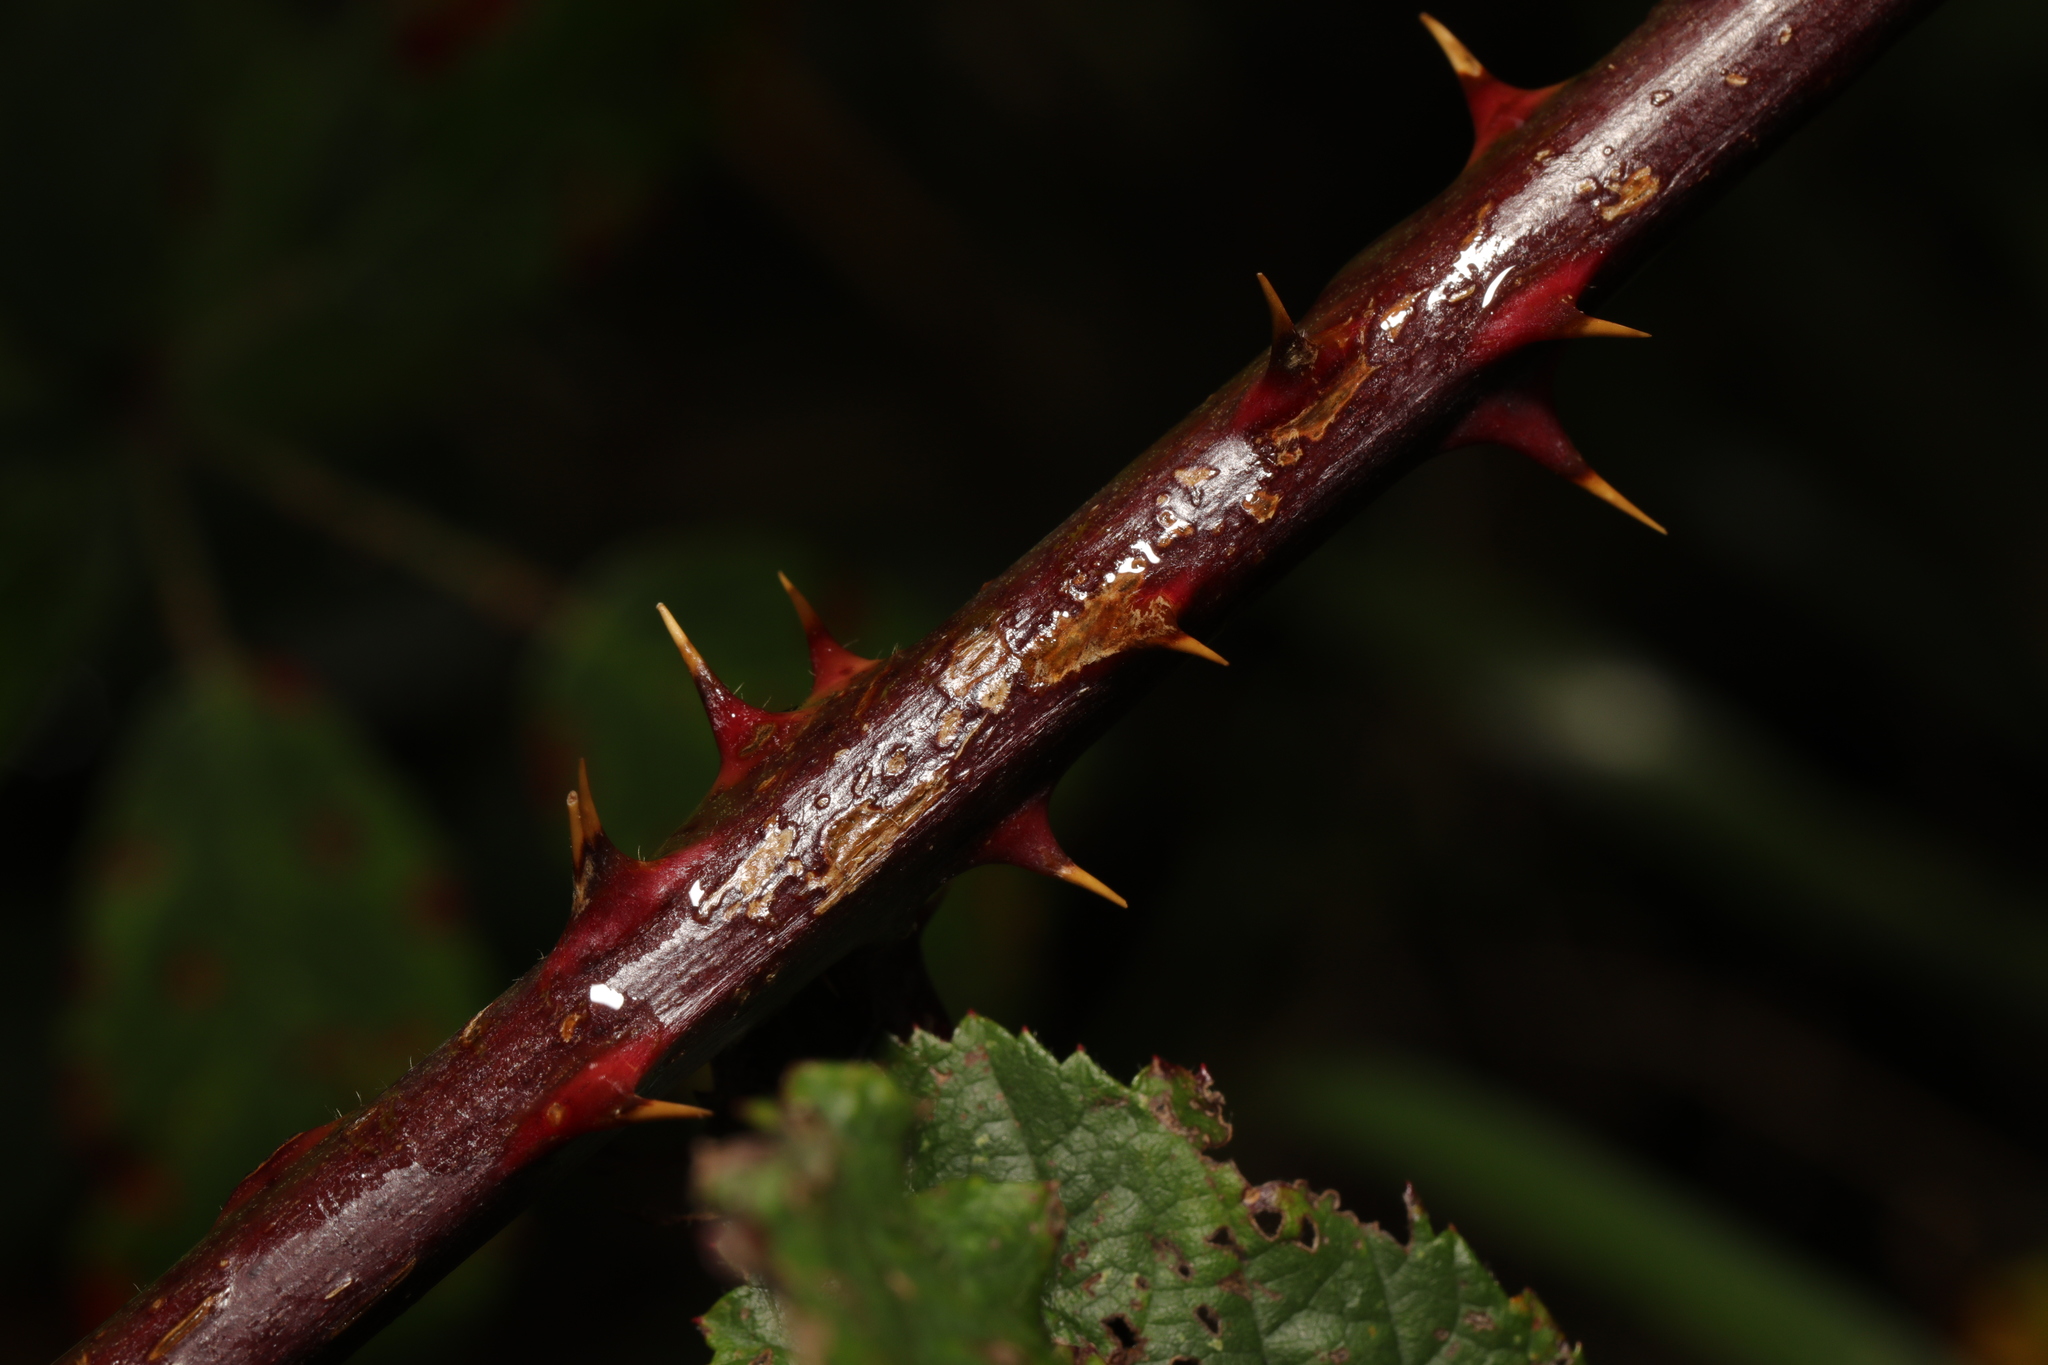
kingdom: Plantae
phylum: Tracheophyta
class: Magnoliopsida
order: Rosales
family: Rosaceae
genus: Rubus
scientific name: Rubus lindleyanus
